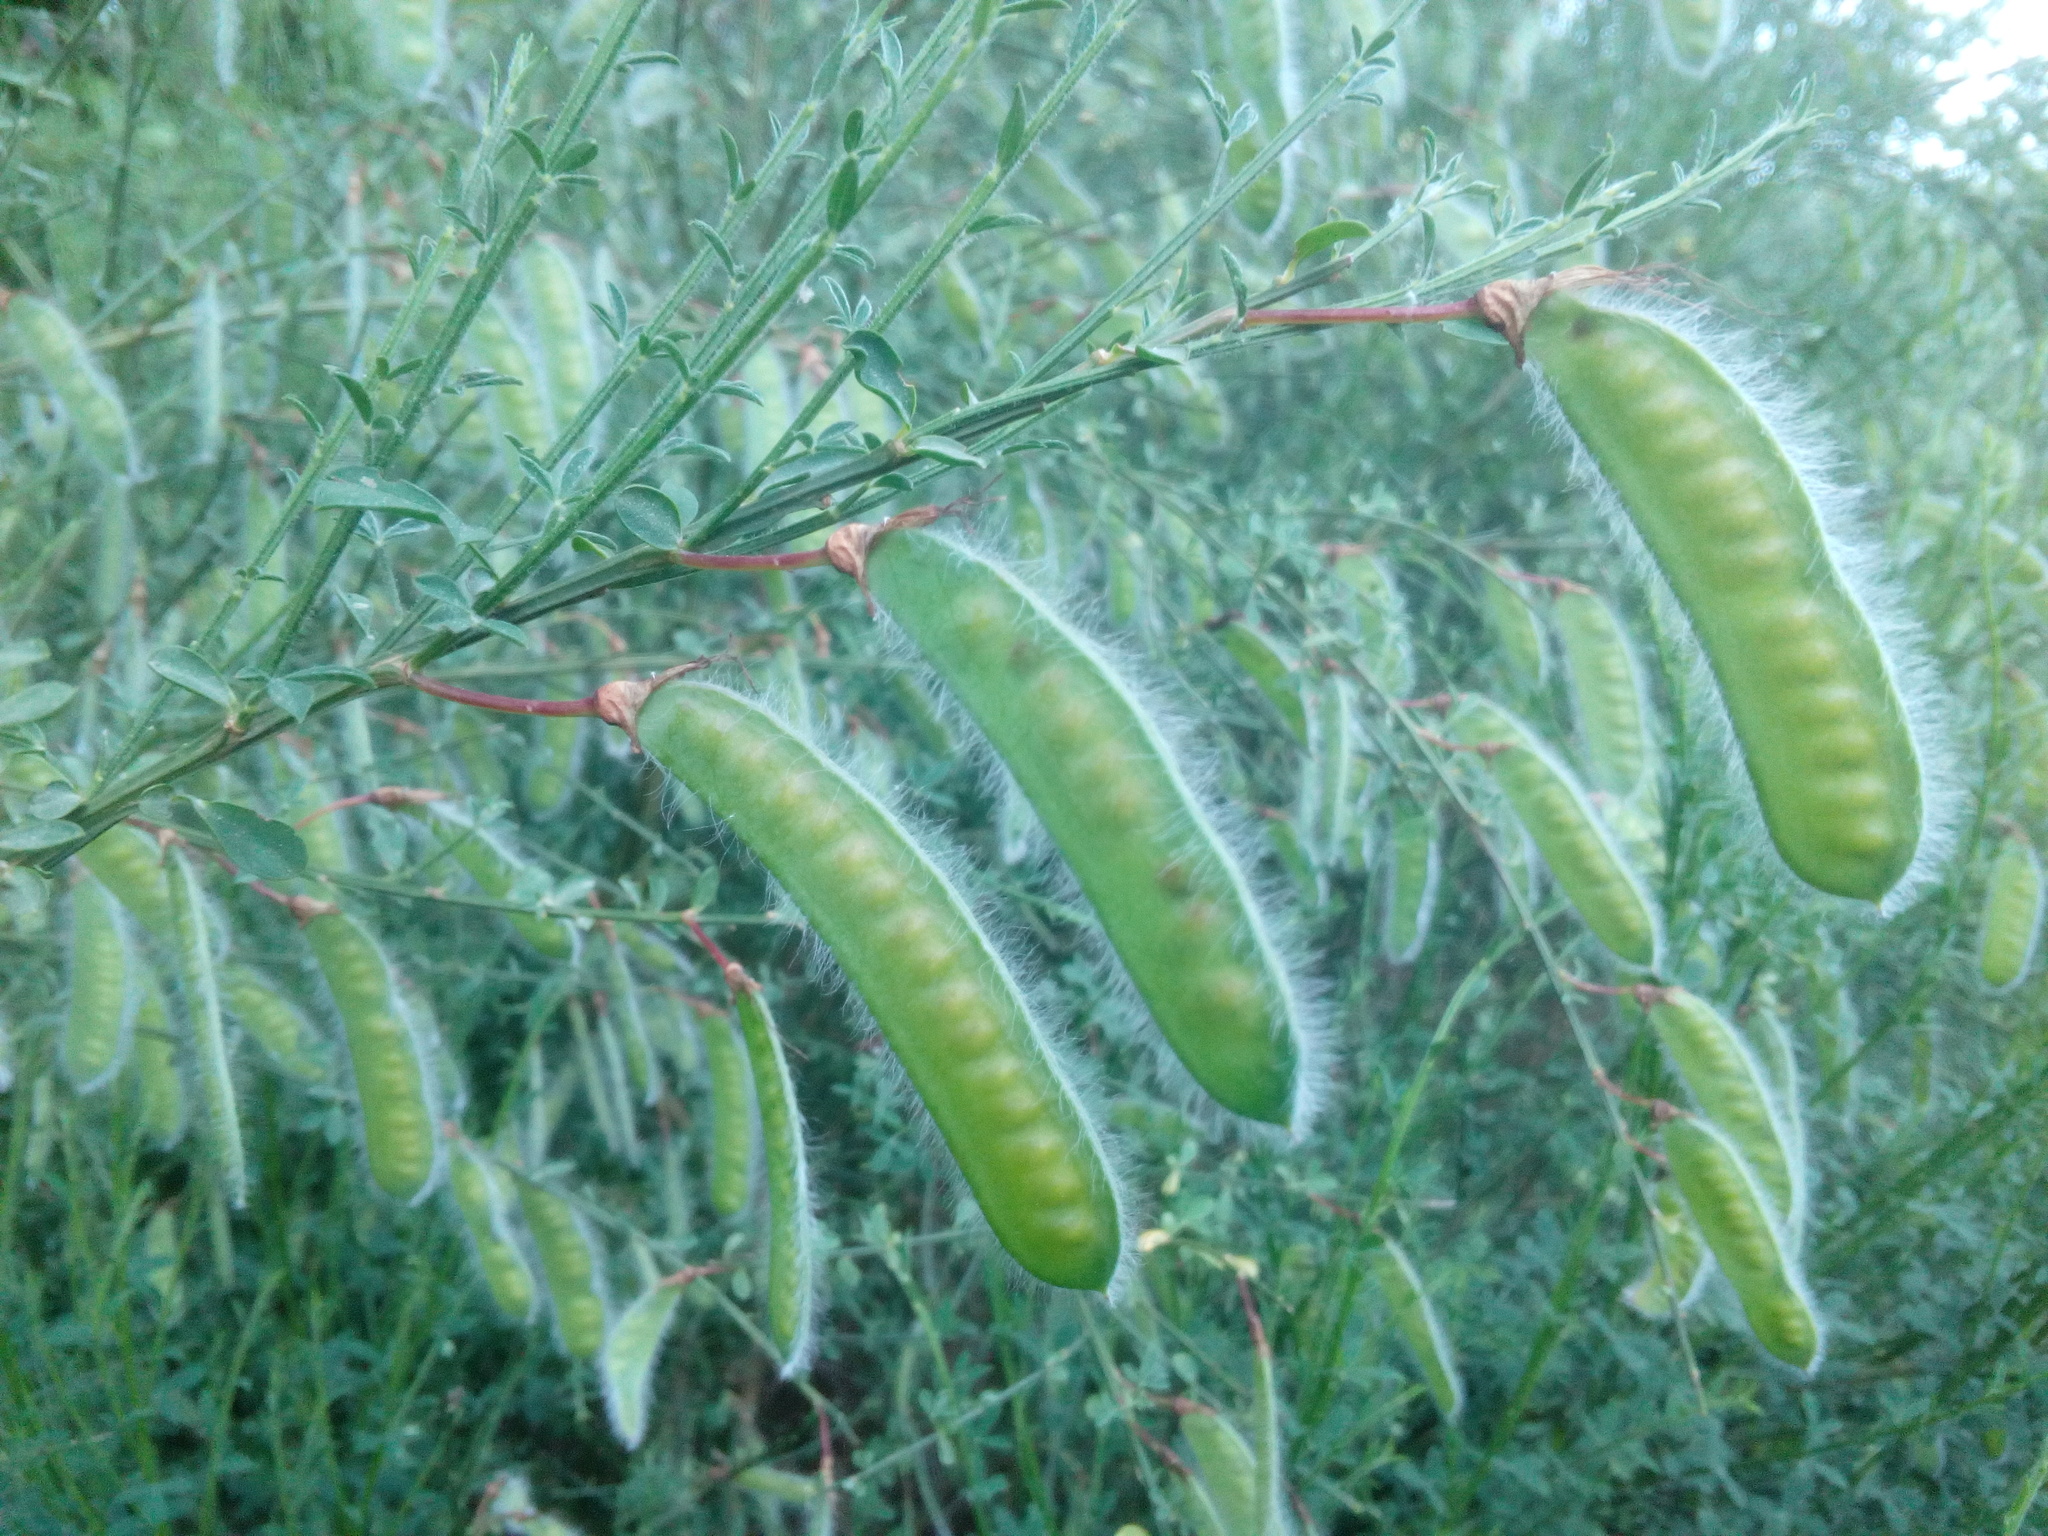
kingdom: Plantae
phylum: Tracheophyta
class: Magnoliopsida
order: Fabales
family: Fabaceae
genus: Cytisus
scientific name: Cytisus scoparius
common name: Scotch broom
